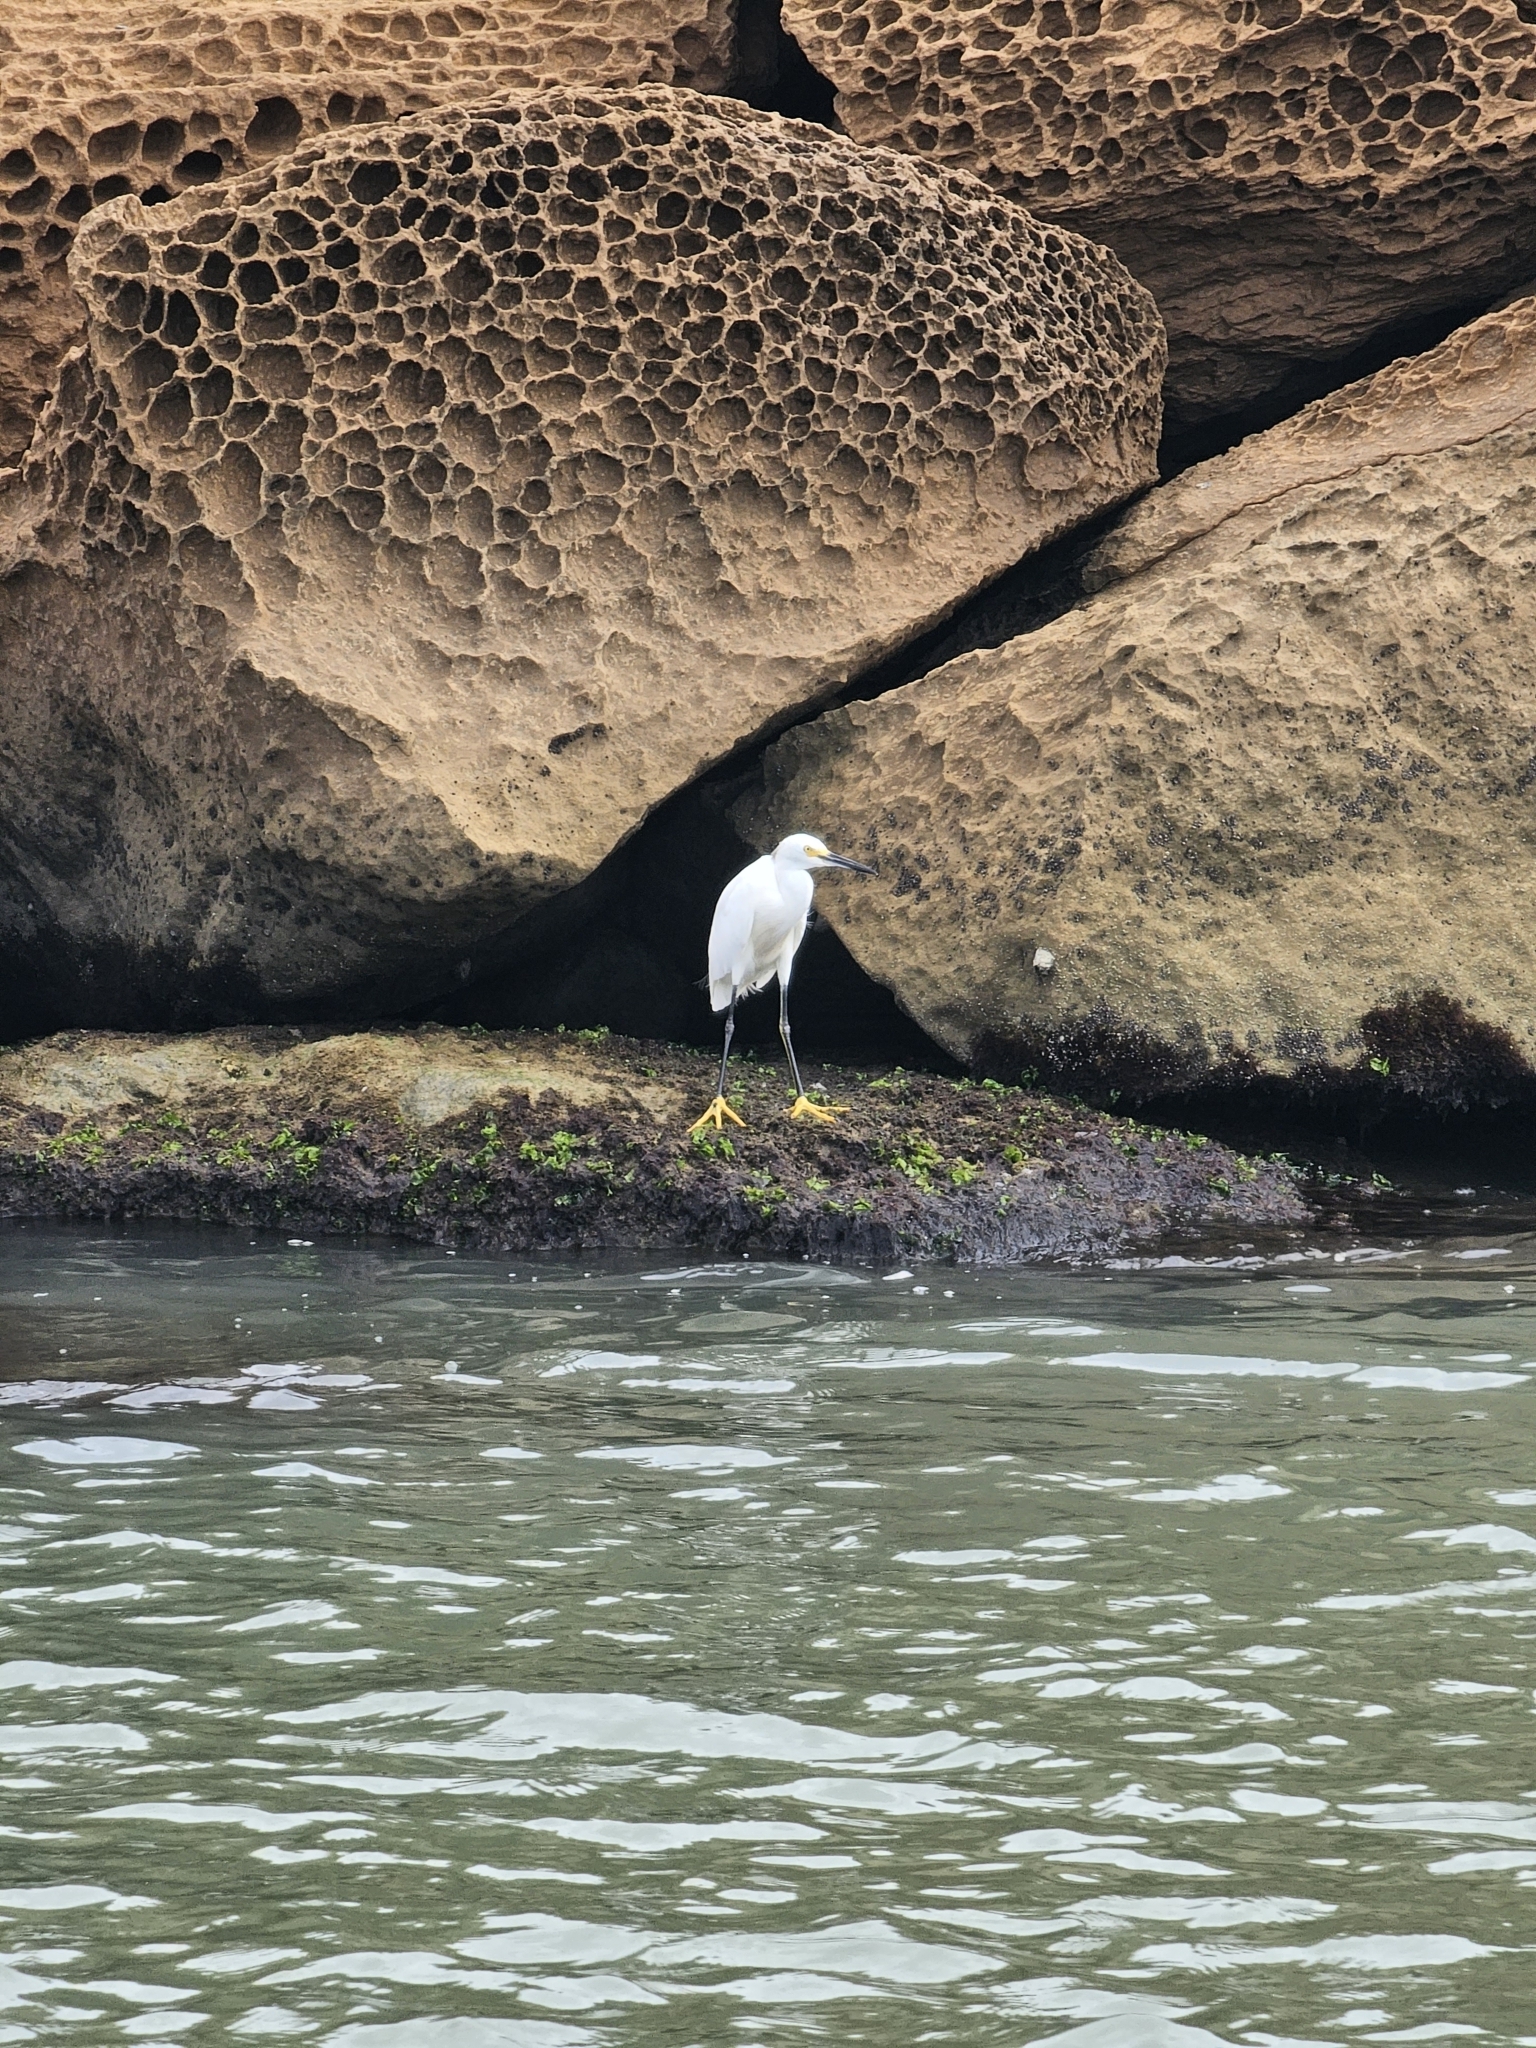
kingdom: Animalia
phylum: Chordata
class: Aves
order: Pelecaniformes
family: Ardeidae
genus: Egretta
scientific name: Egretta thula
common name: Snowy egret
